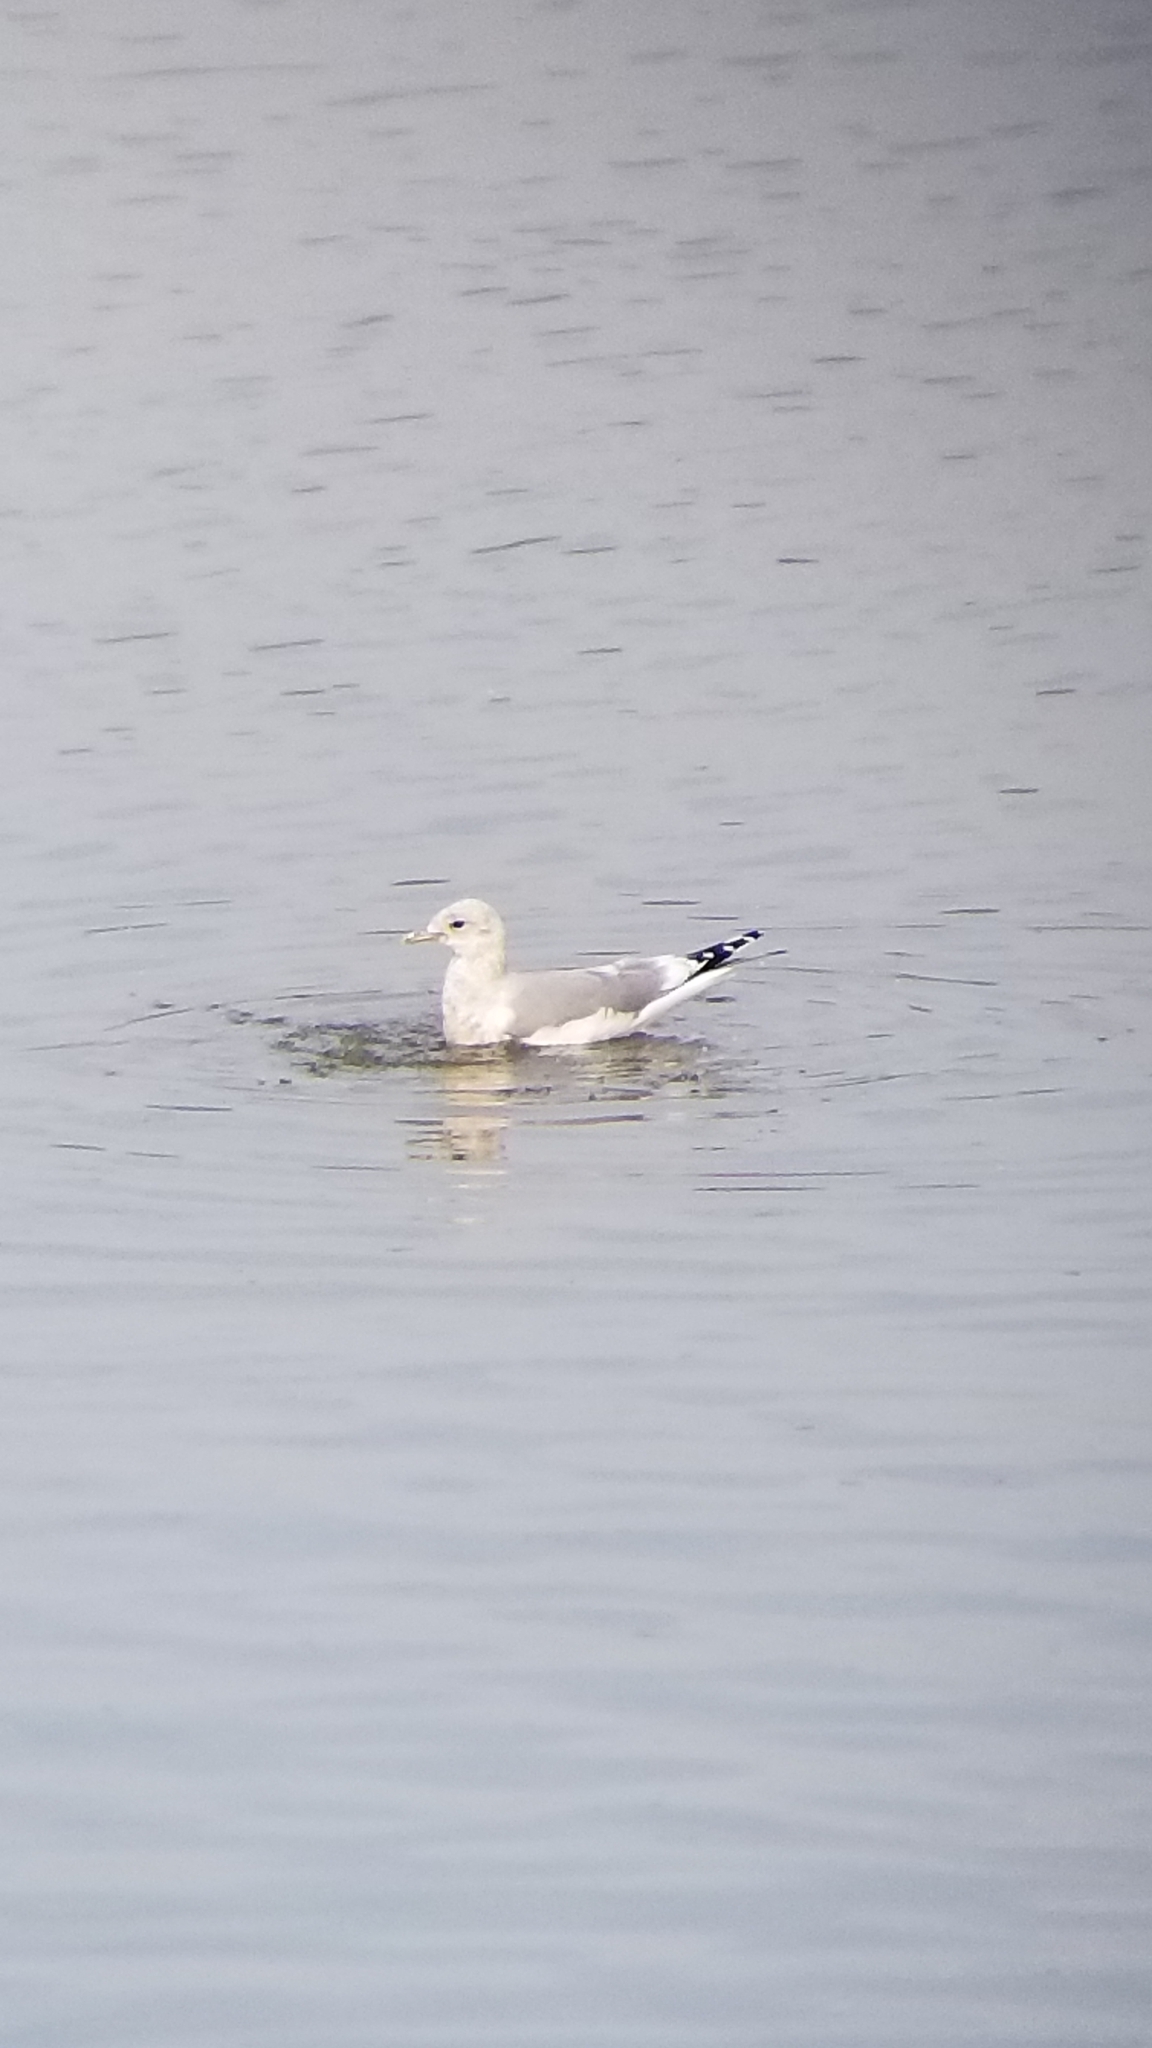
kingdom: Animalia
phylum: Chordata
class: Aves
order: Charadriiformes
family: Laridae
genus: Larus
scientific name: Larus brachyrhynchus
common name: Short-billed gull
